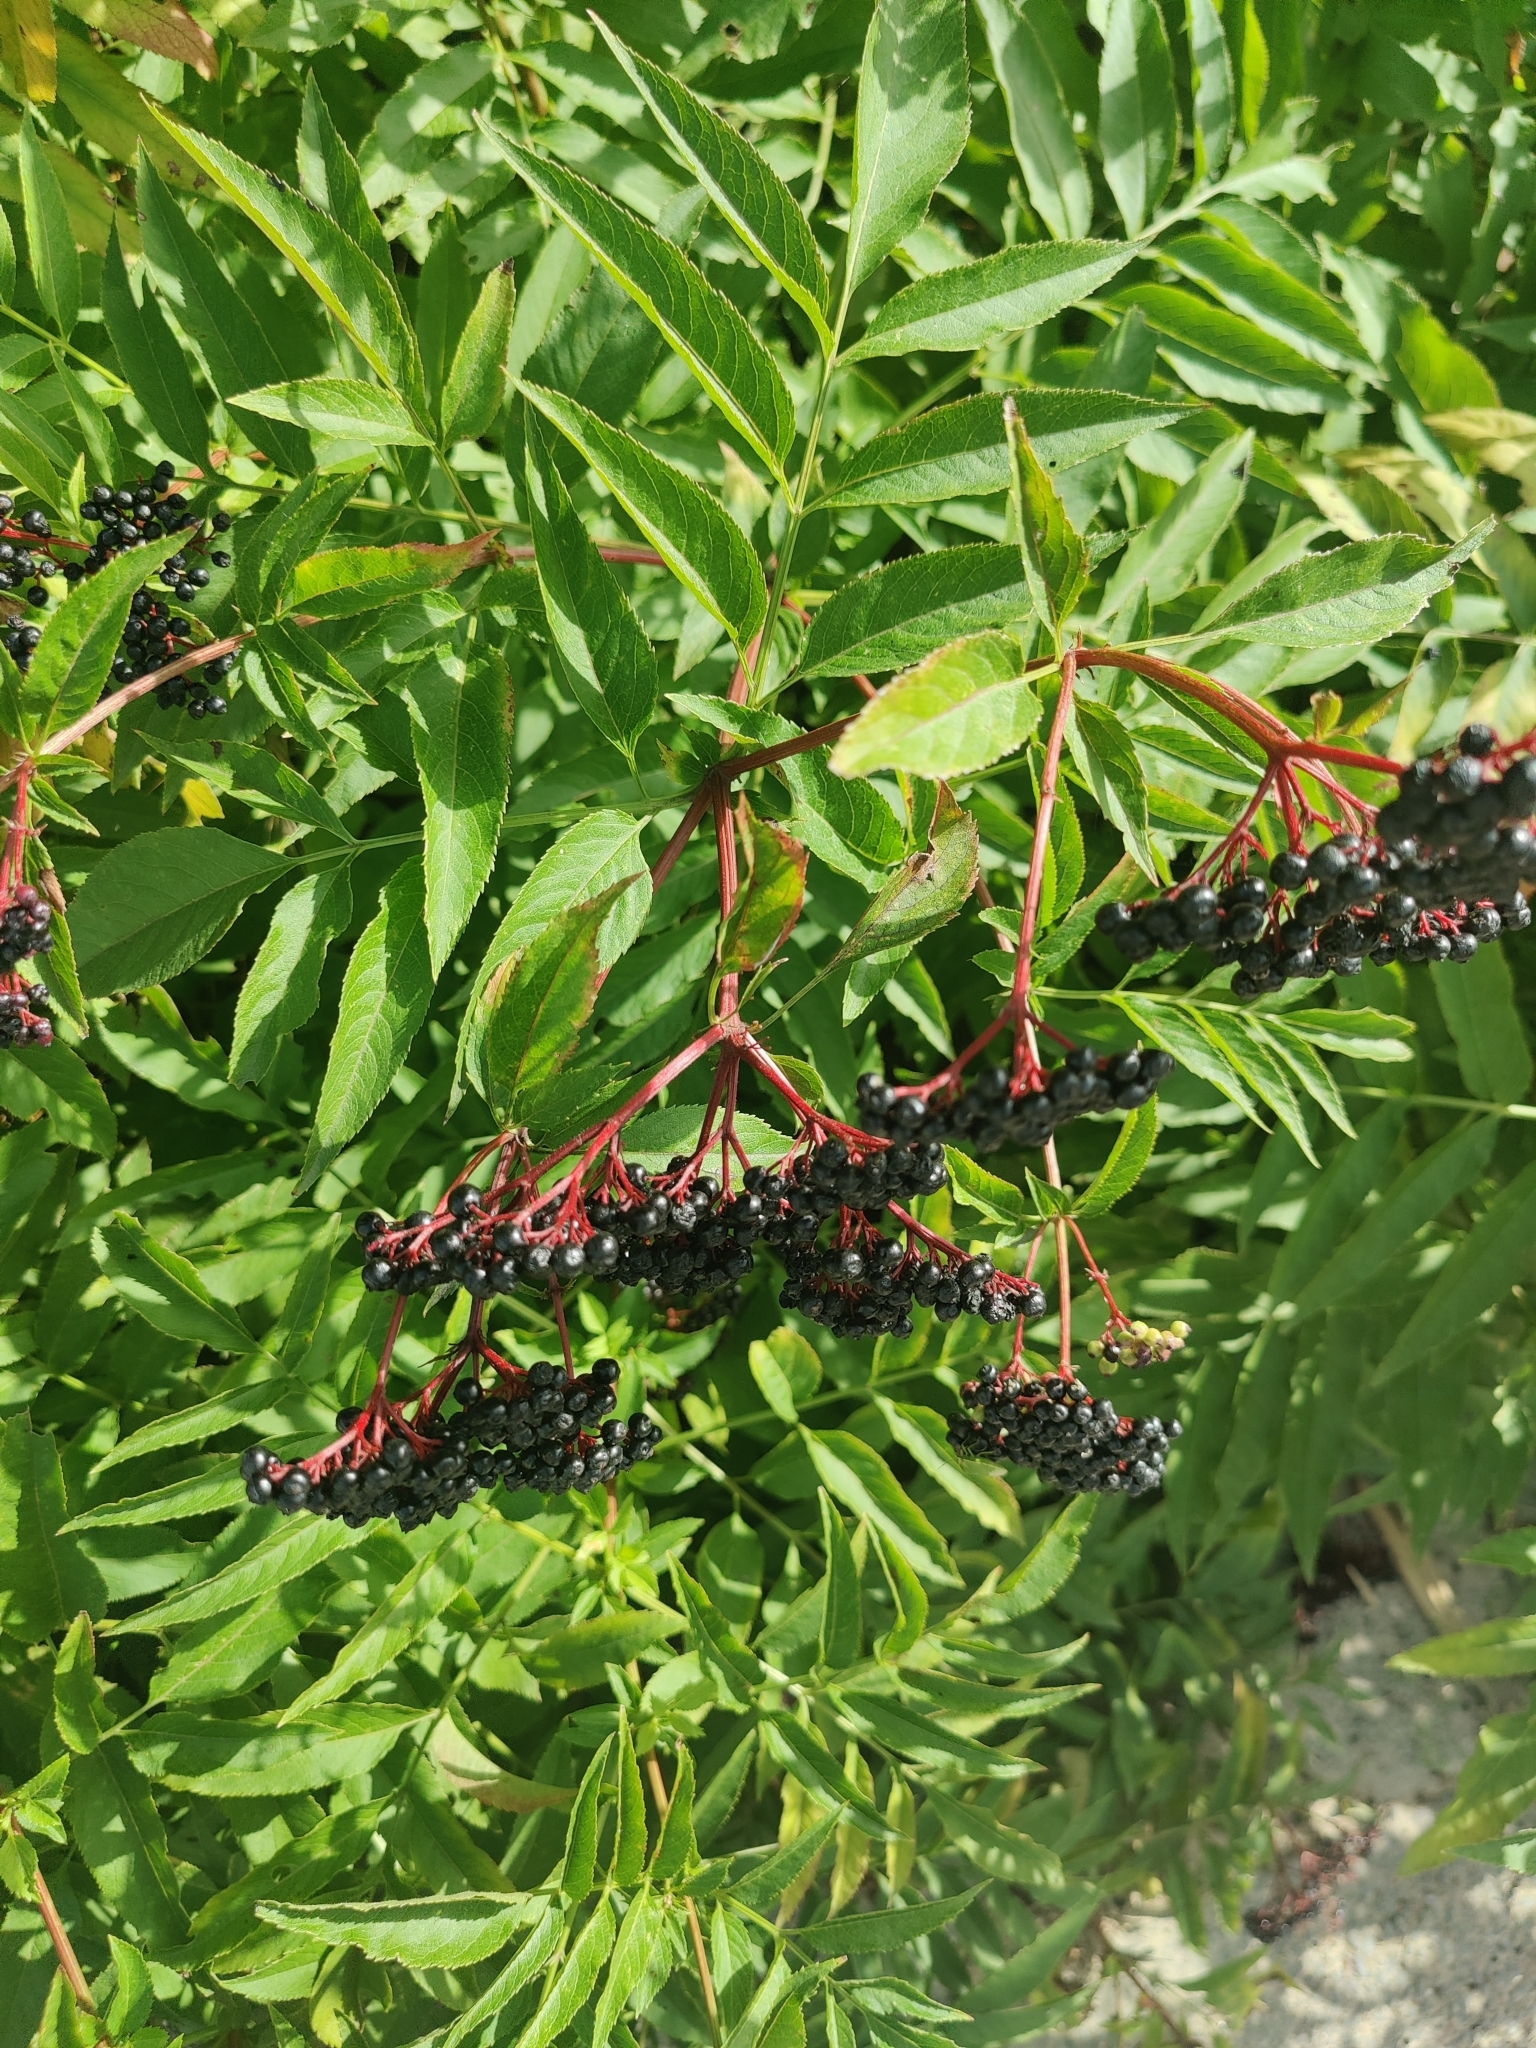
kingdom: Plantae
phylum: Tracheophyta
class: Magnoliopsida
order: Dipsacales
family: Viburnaceae
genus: Sambucus
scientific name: Sambucus ebulus
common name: Dwarf elder
